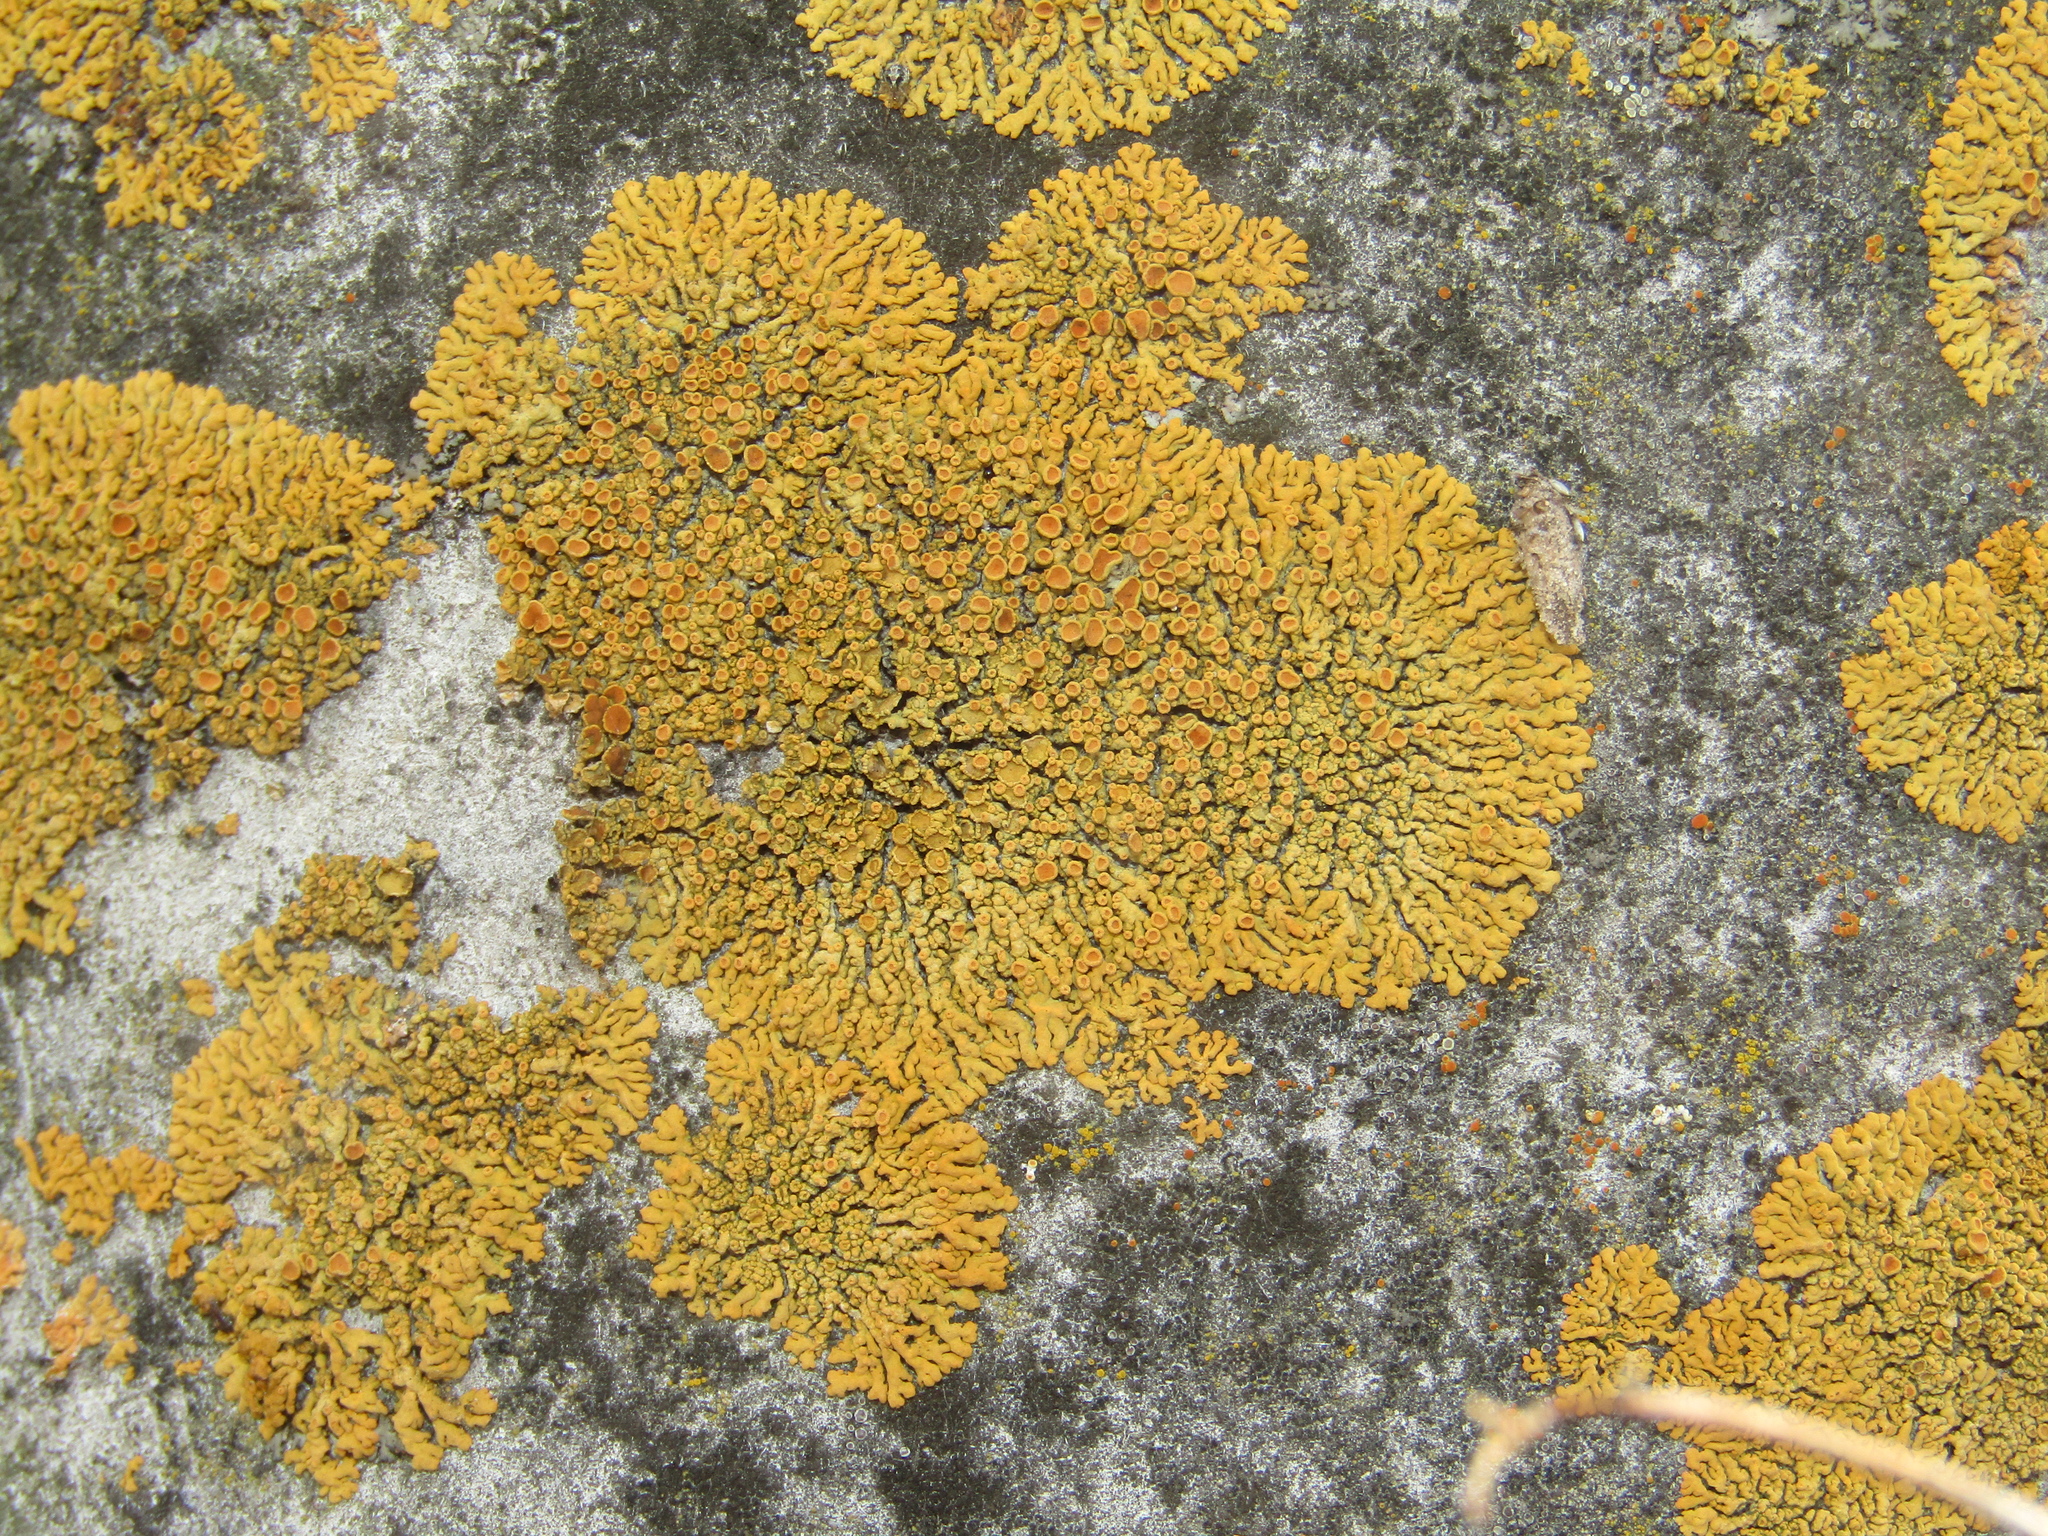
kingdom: Fungi
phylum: Ascomycota
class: Lecanoromycetes
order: Teloschistales
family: Teloschistaceae
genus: Xanthoria
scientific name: Xanthoria elegans
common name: Elegant sunburst lichen
